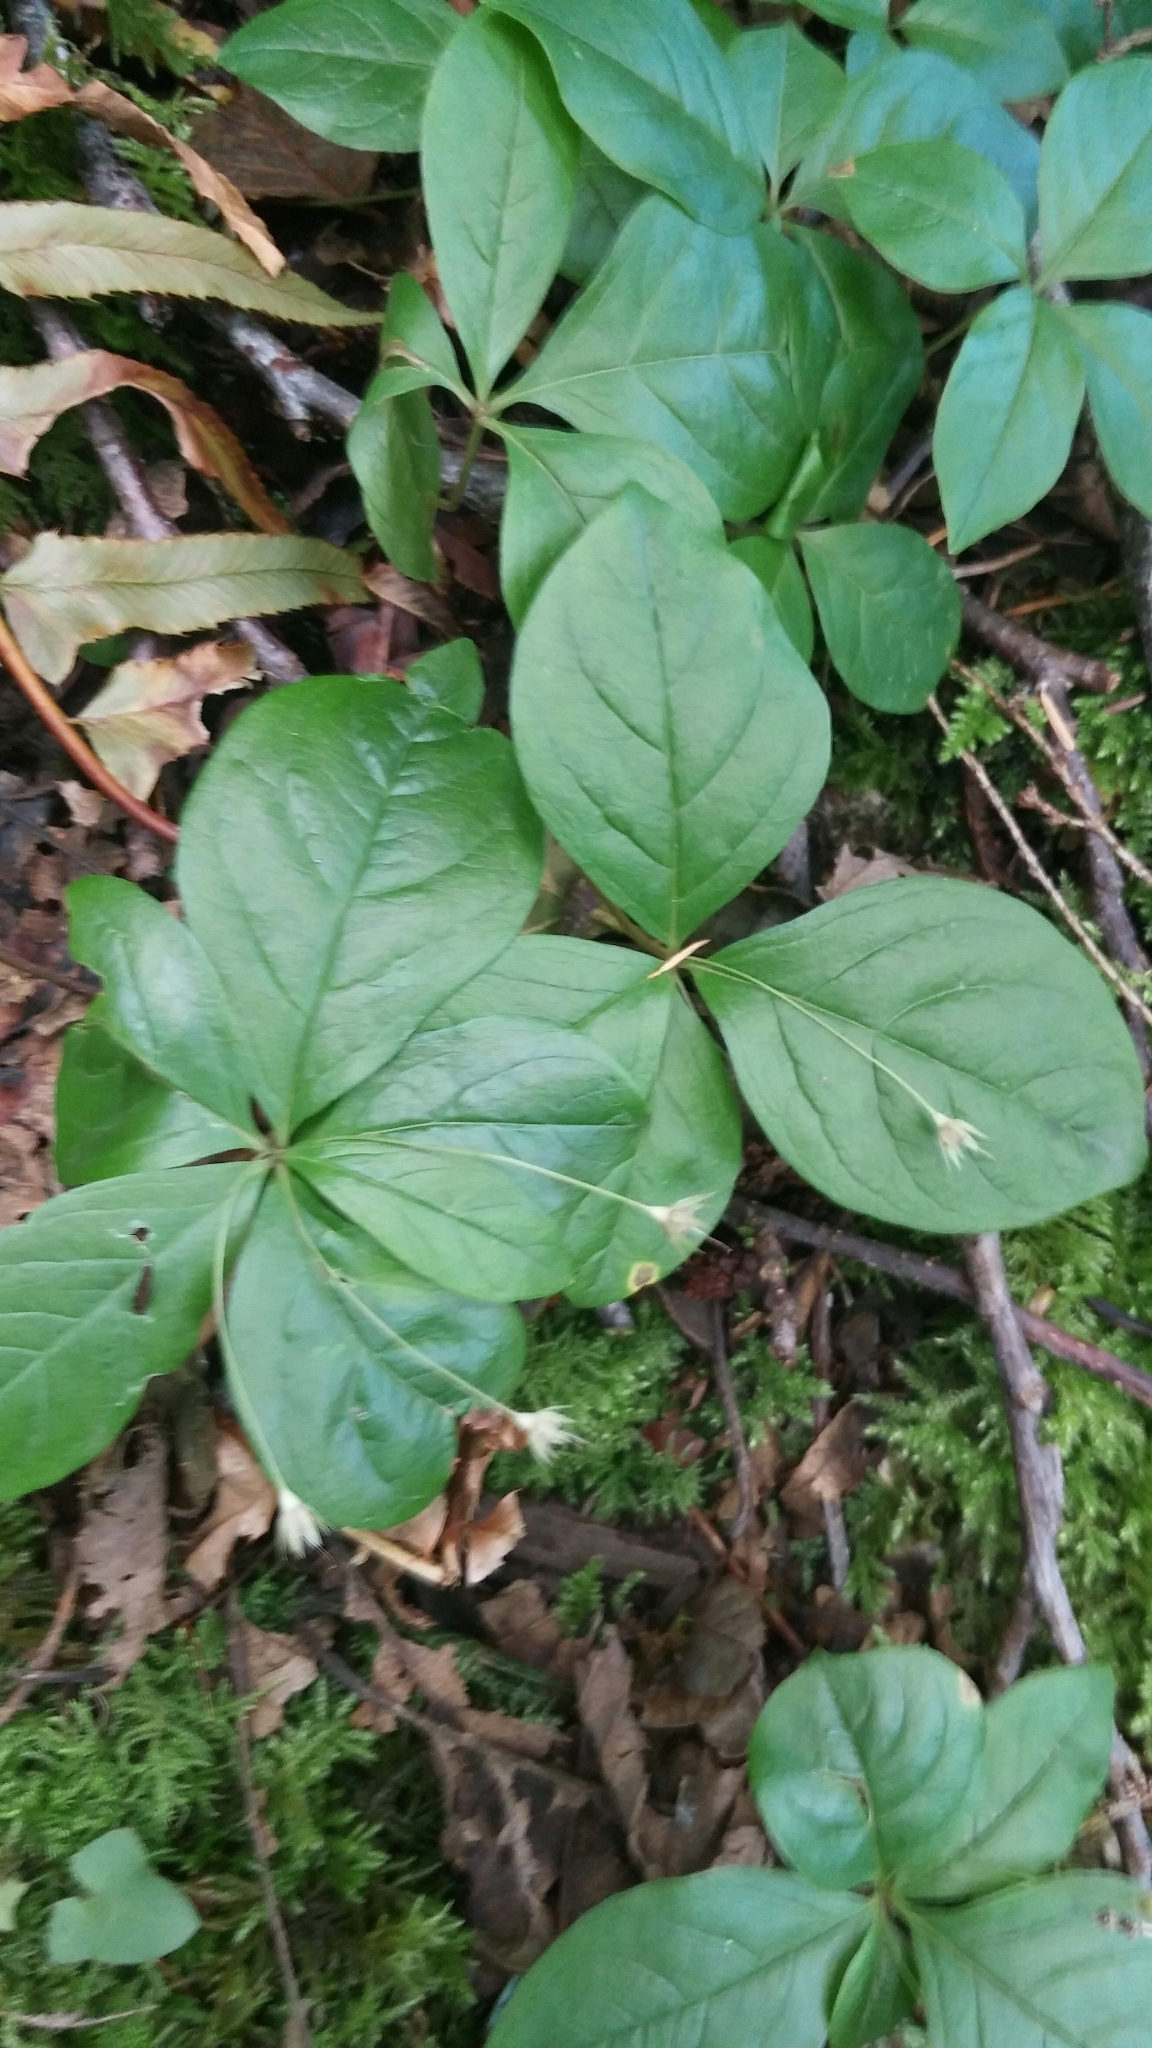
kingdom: Plantae
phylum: Tracheophyta
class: Magnoliopsida
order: Ericales
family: Primulaceae
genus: Lysimachia
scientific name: Lysimachia latifolia
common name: Pacific starflower
